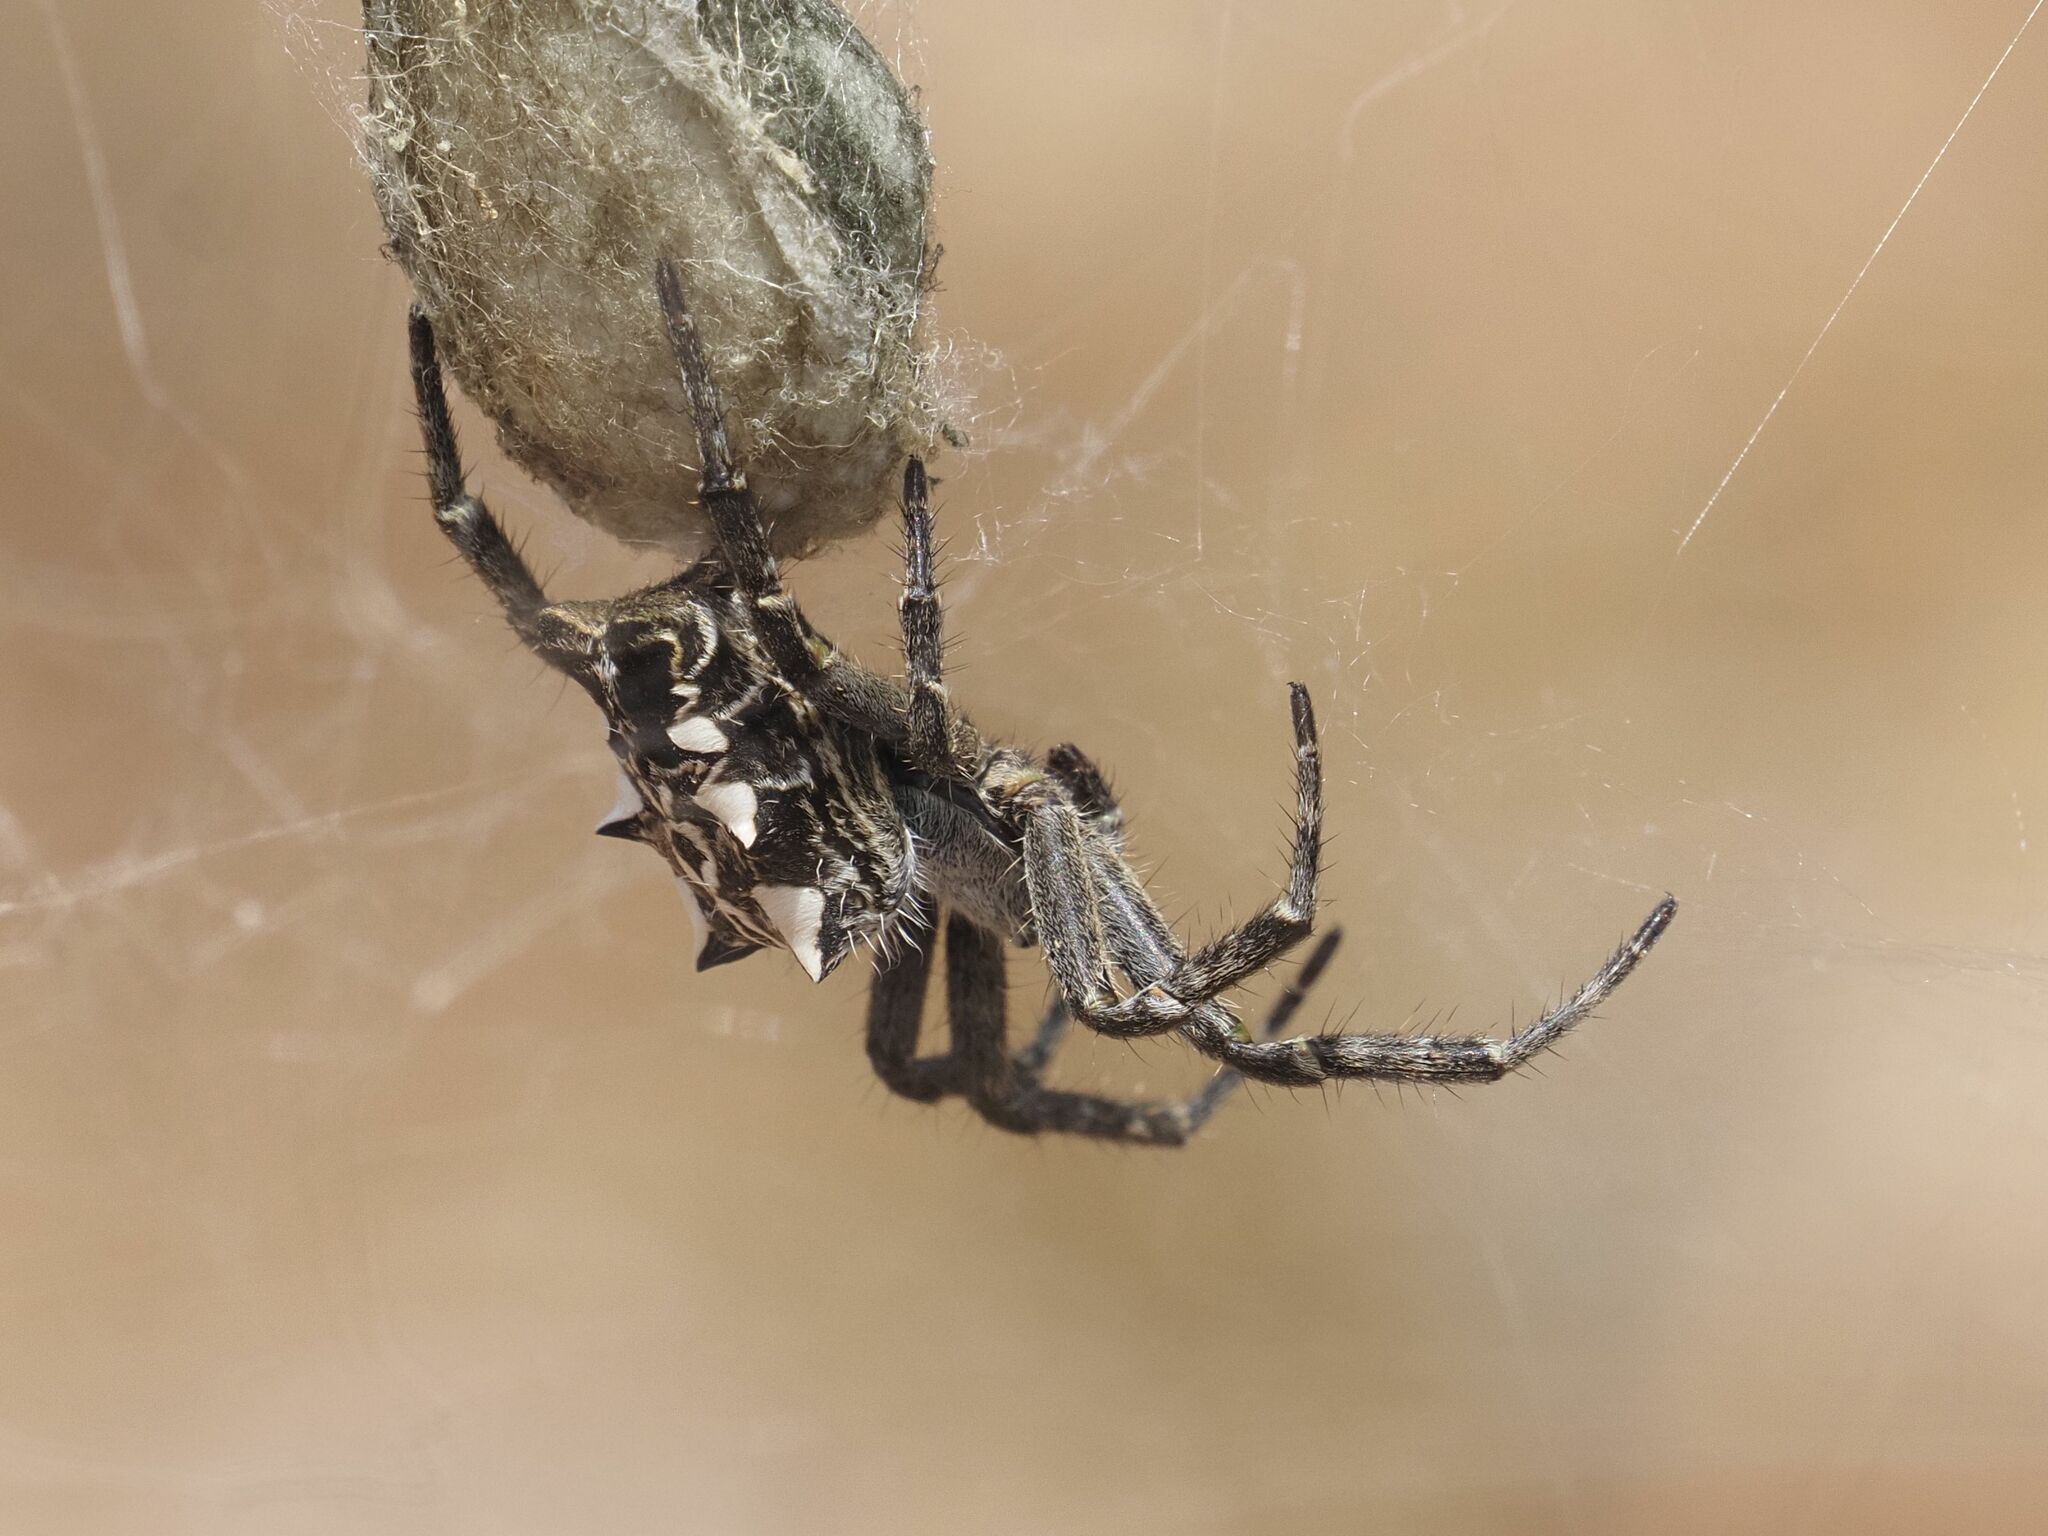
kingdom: Animalia
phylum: Arthropoda
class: Arachnida
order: Araneae
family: Araneidae
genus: Cyrtophora
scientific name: Cyrtophora citricola
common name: Orb weavers
